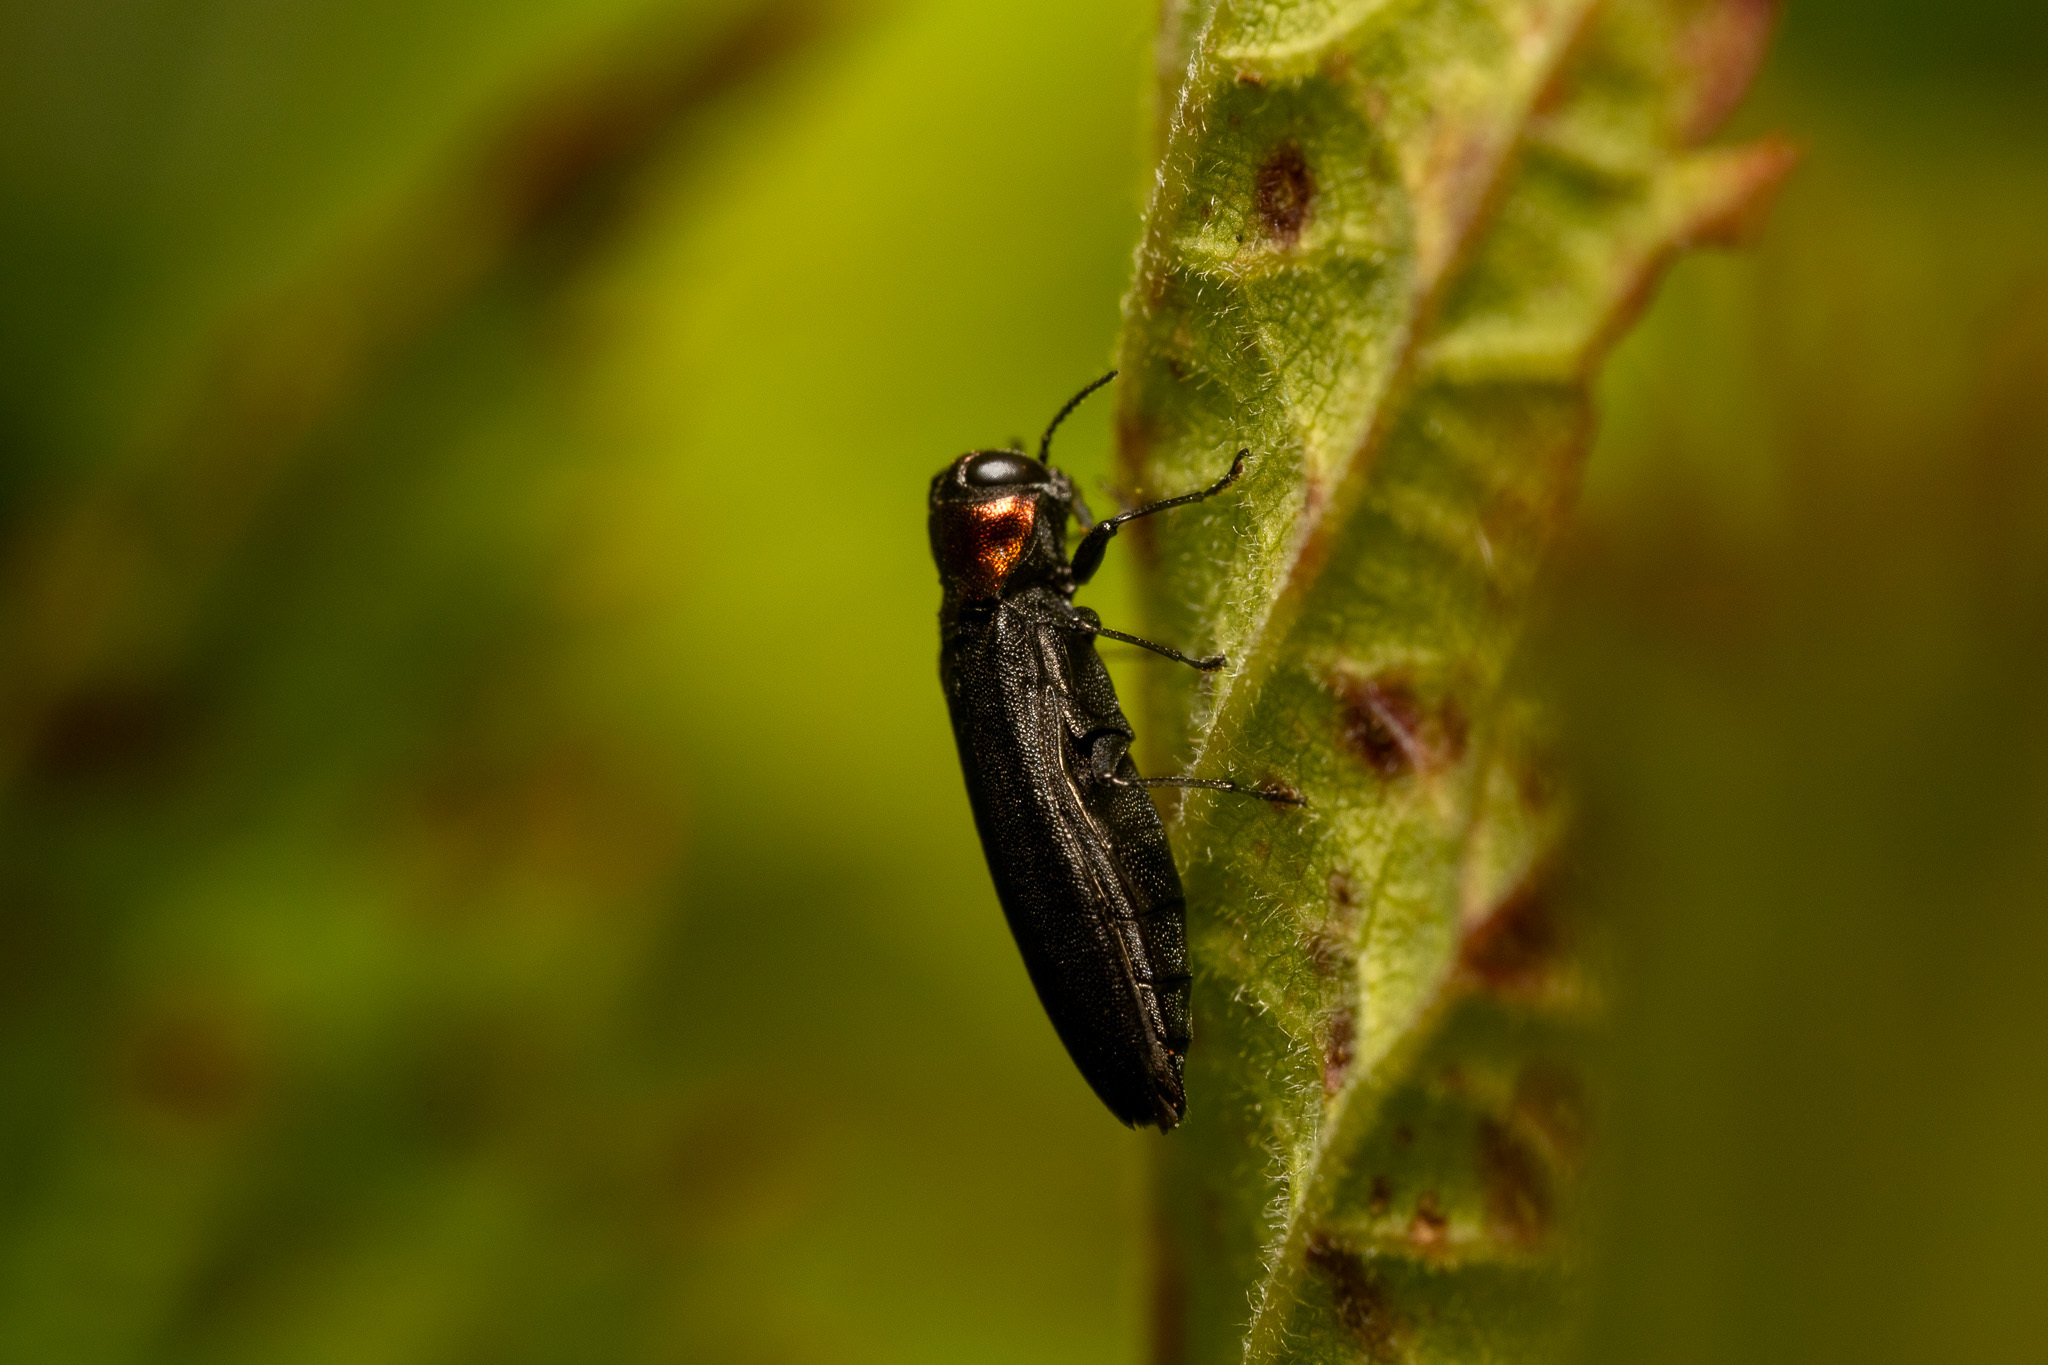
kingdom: Animalia
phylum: Arthropoda
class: Insecta
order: Coleoptera
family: Buprestidae
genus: Agrilus
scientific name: Agrilus ruficollis
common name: Red-necked cane borer beetle
